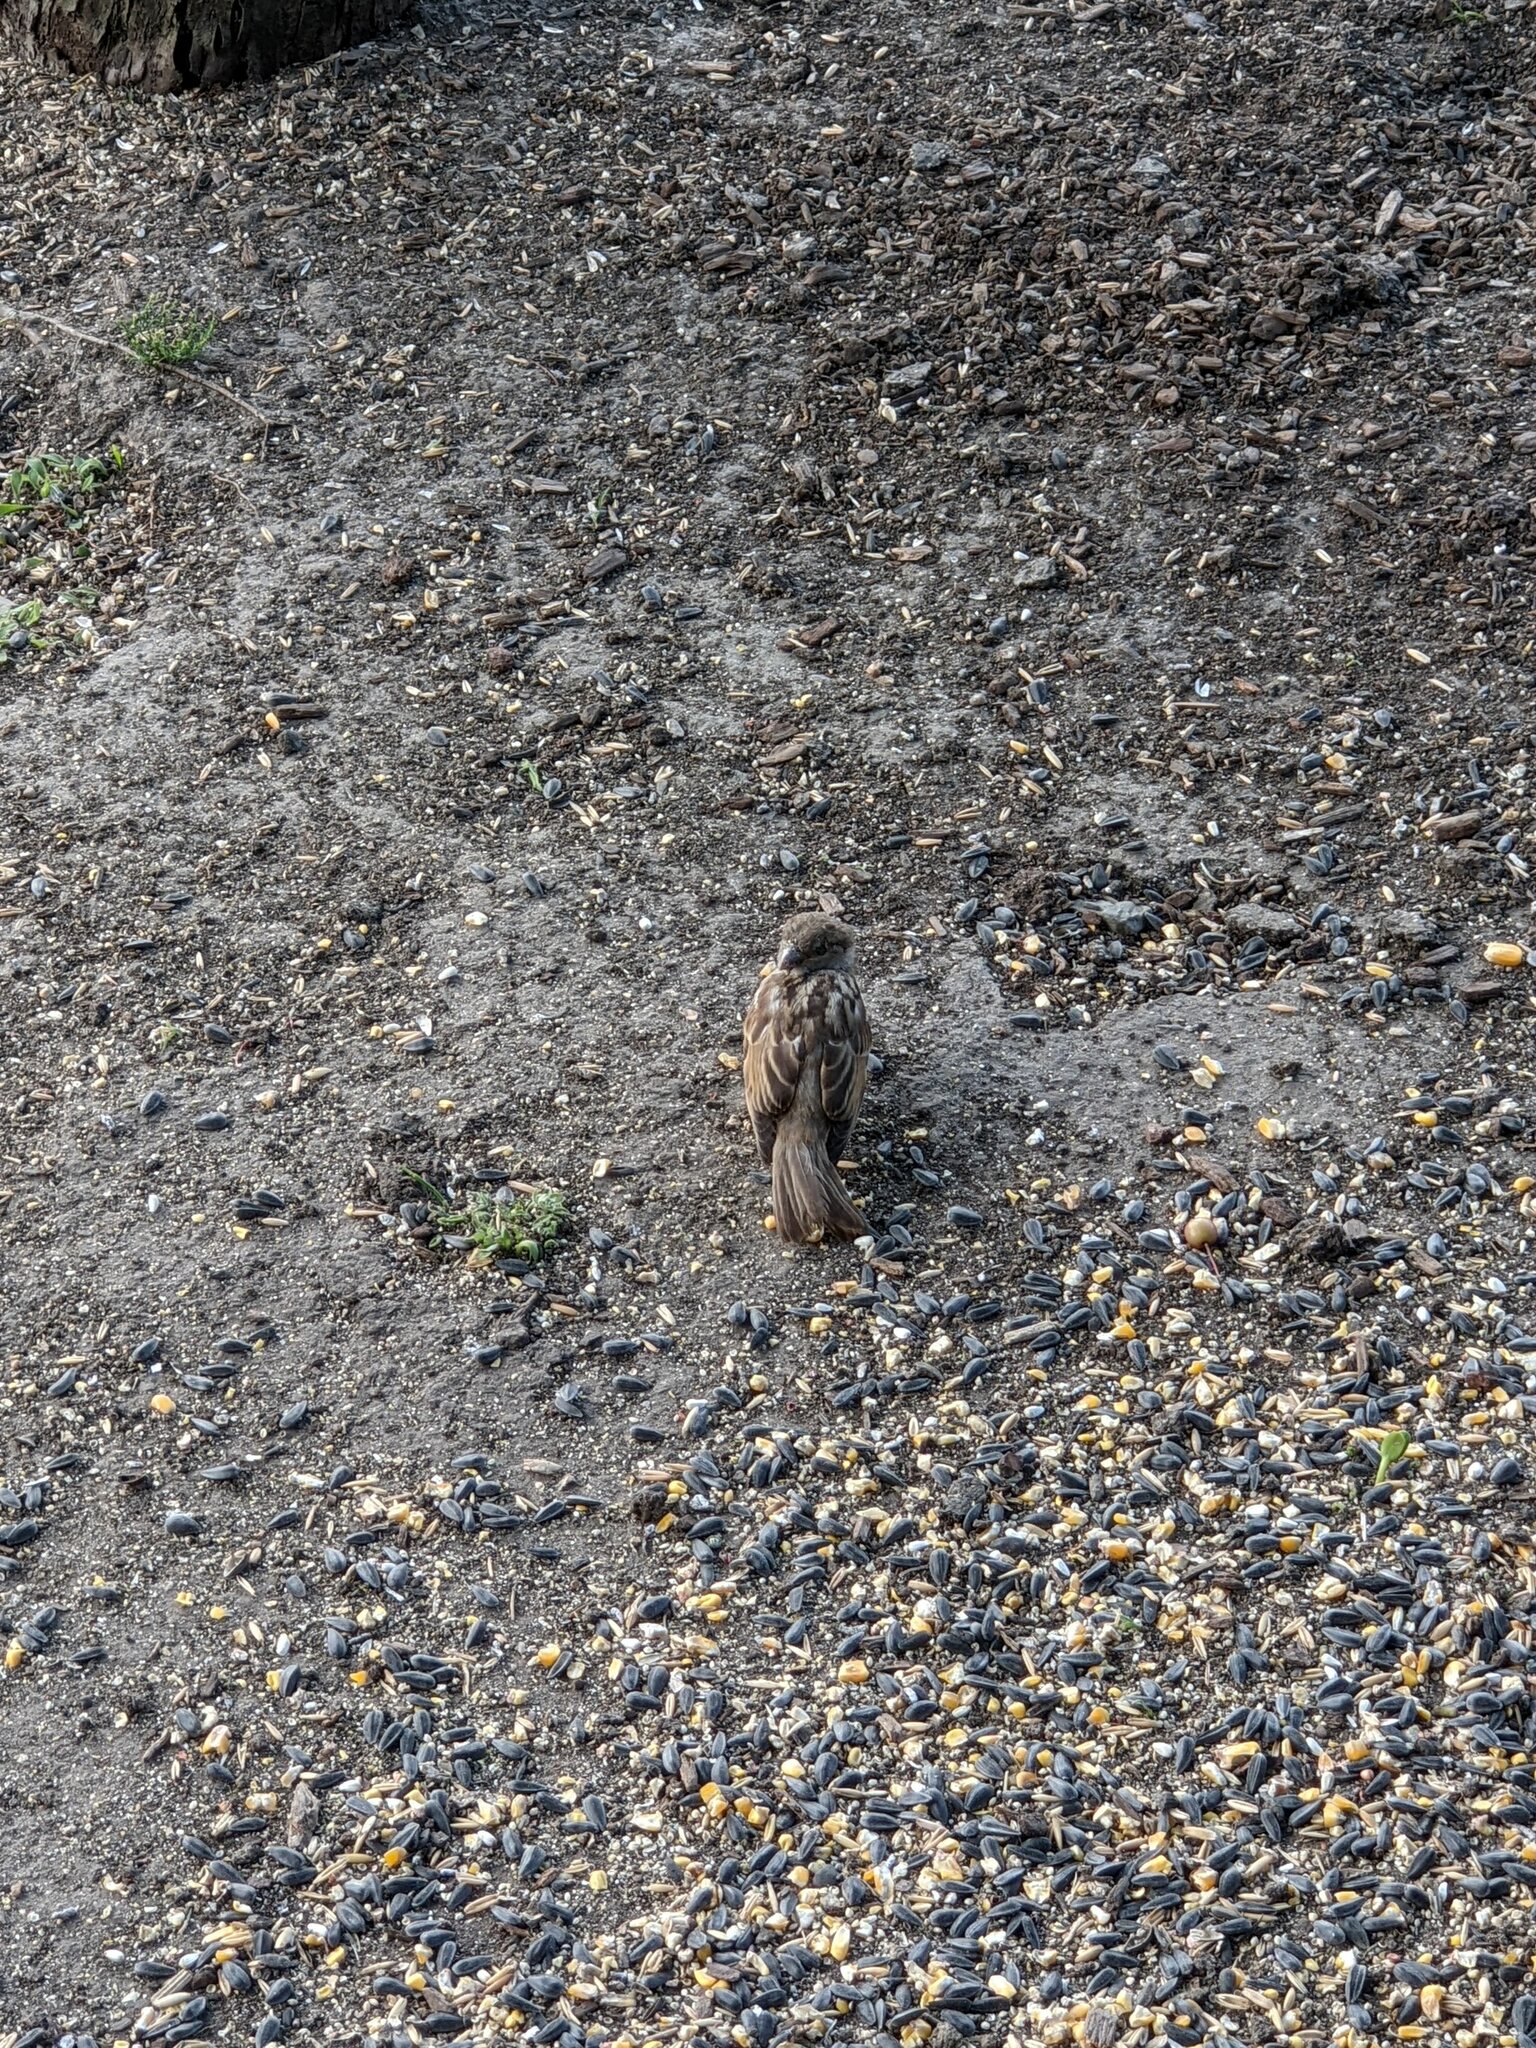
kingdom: Animalia
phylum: Chordata
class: Aves
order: Passeriformes
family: Passeridae
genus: Passer
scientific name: Passer domesticus
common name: House sparrow
